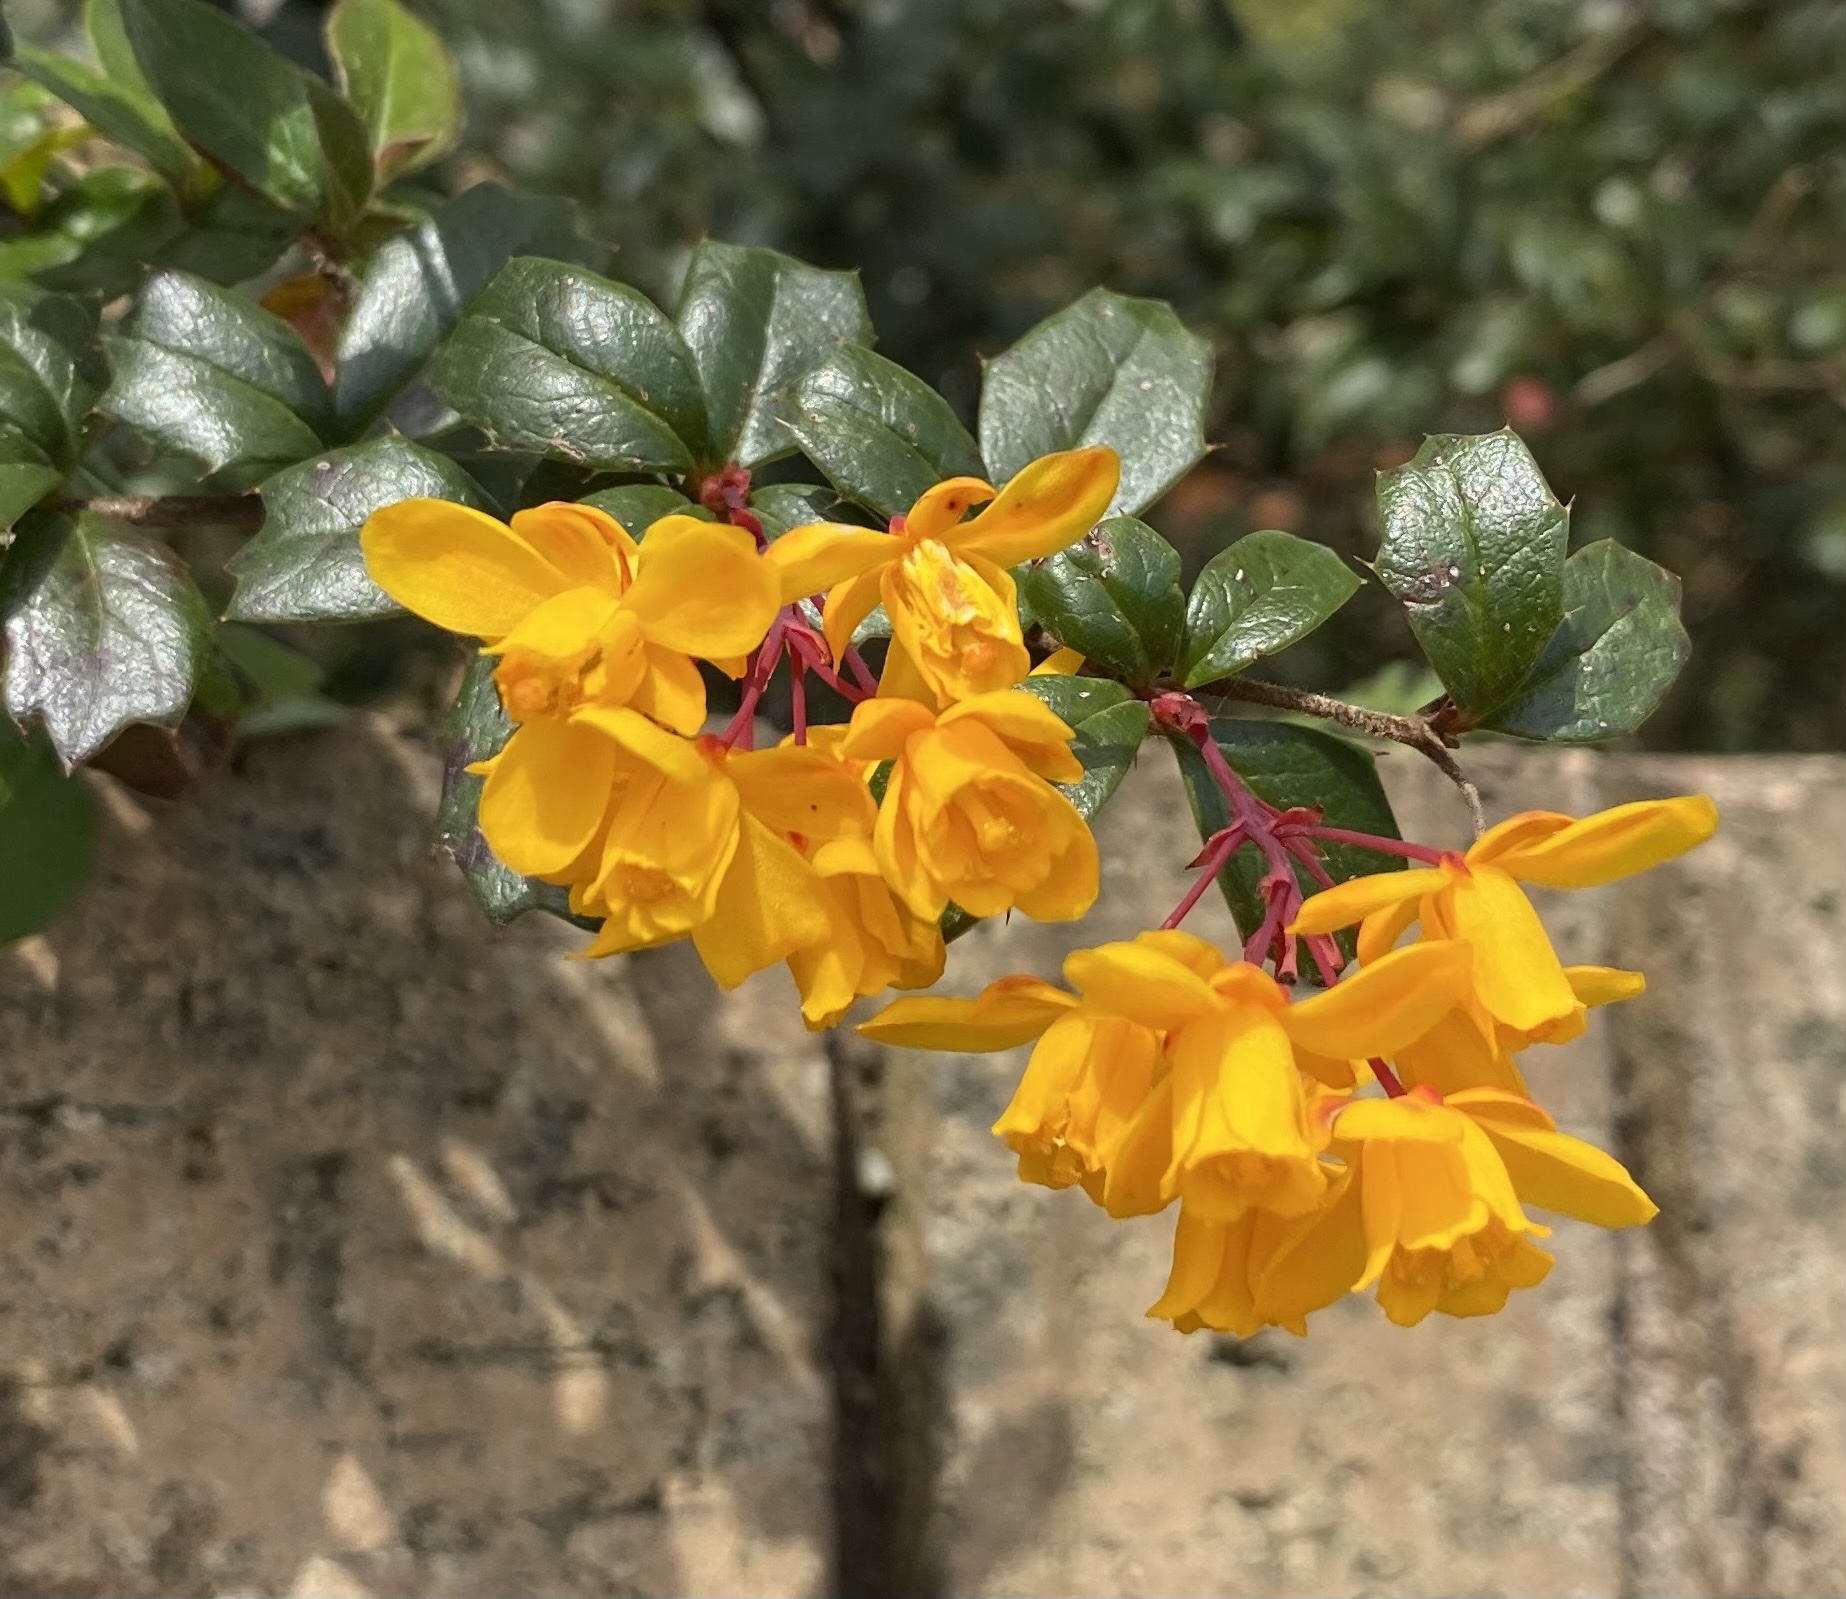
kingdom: Plantae
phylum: Tracheophyta
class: Magnoliopsida
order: Ranunculales
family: Berberidaceae
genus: Berberis
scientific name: Berberis darwinii
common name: Darwin's barberry
